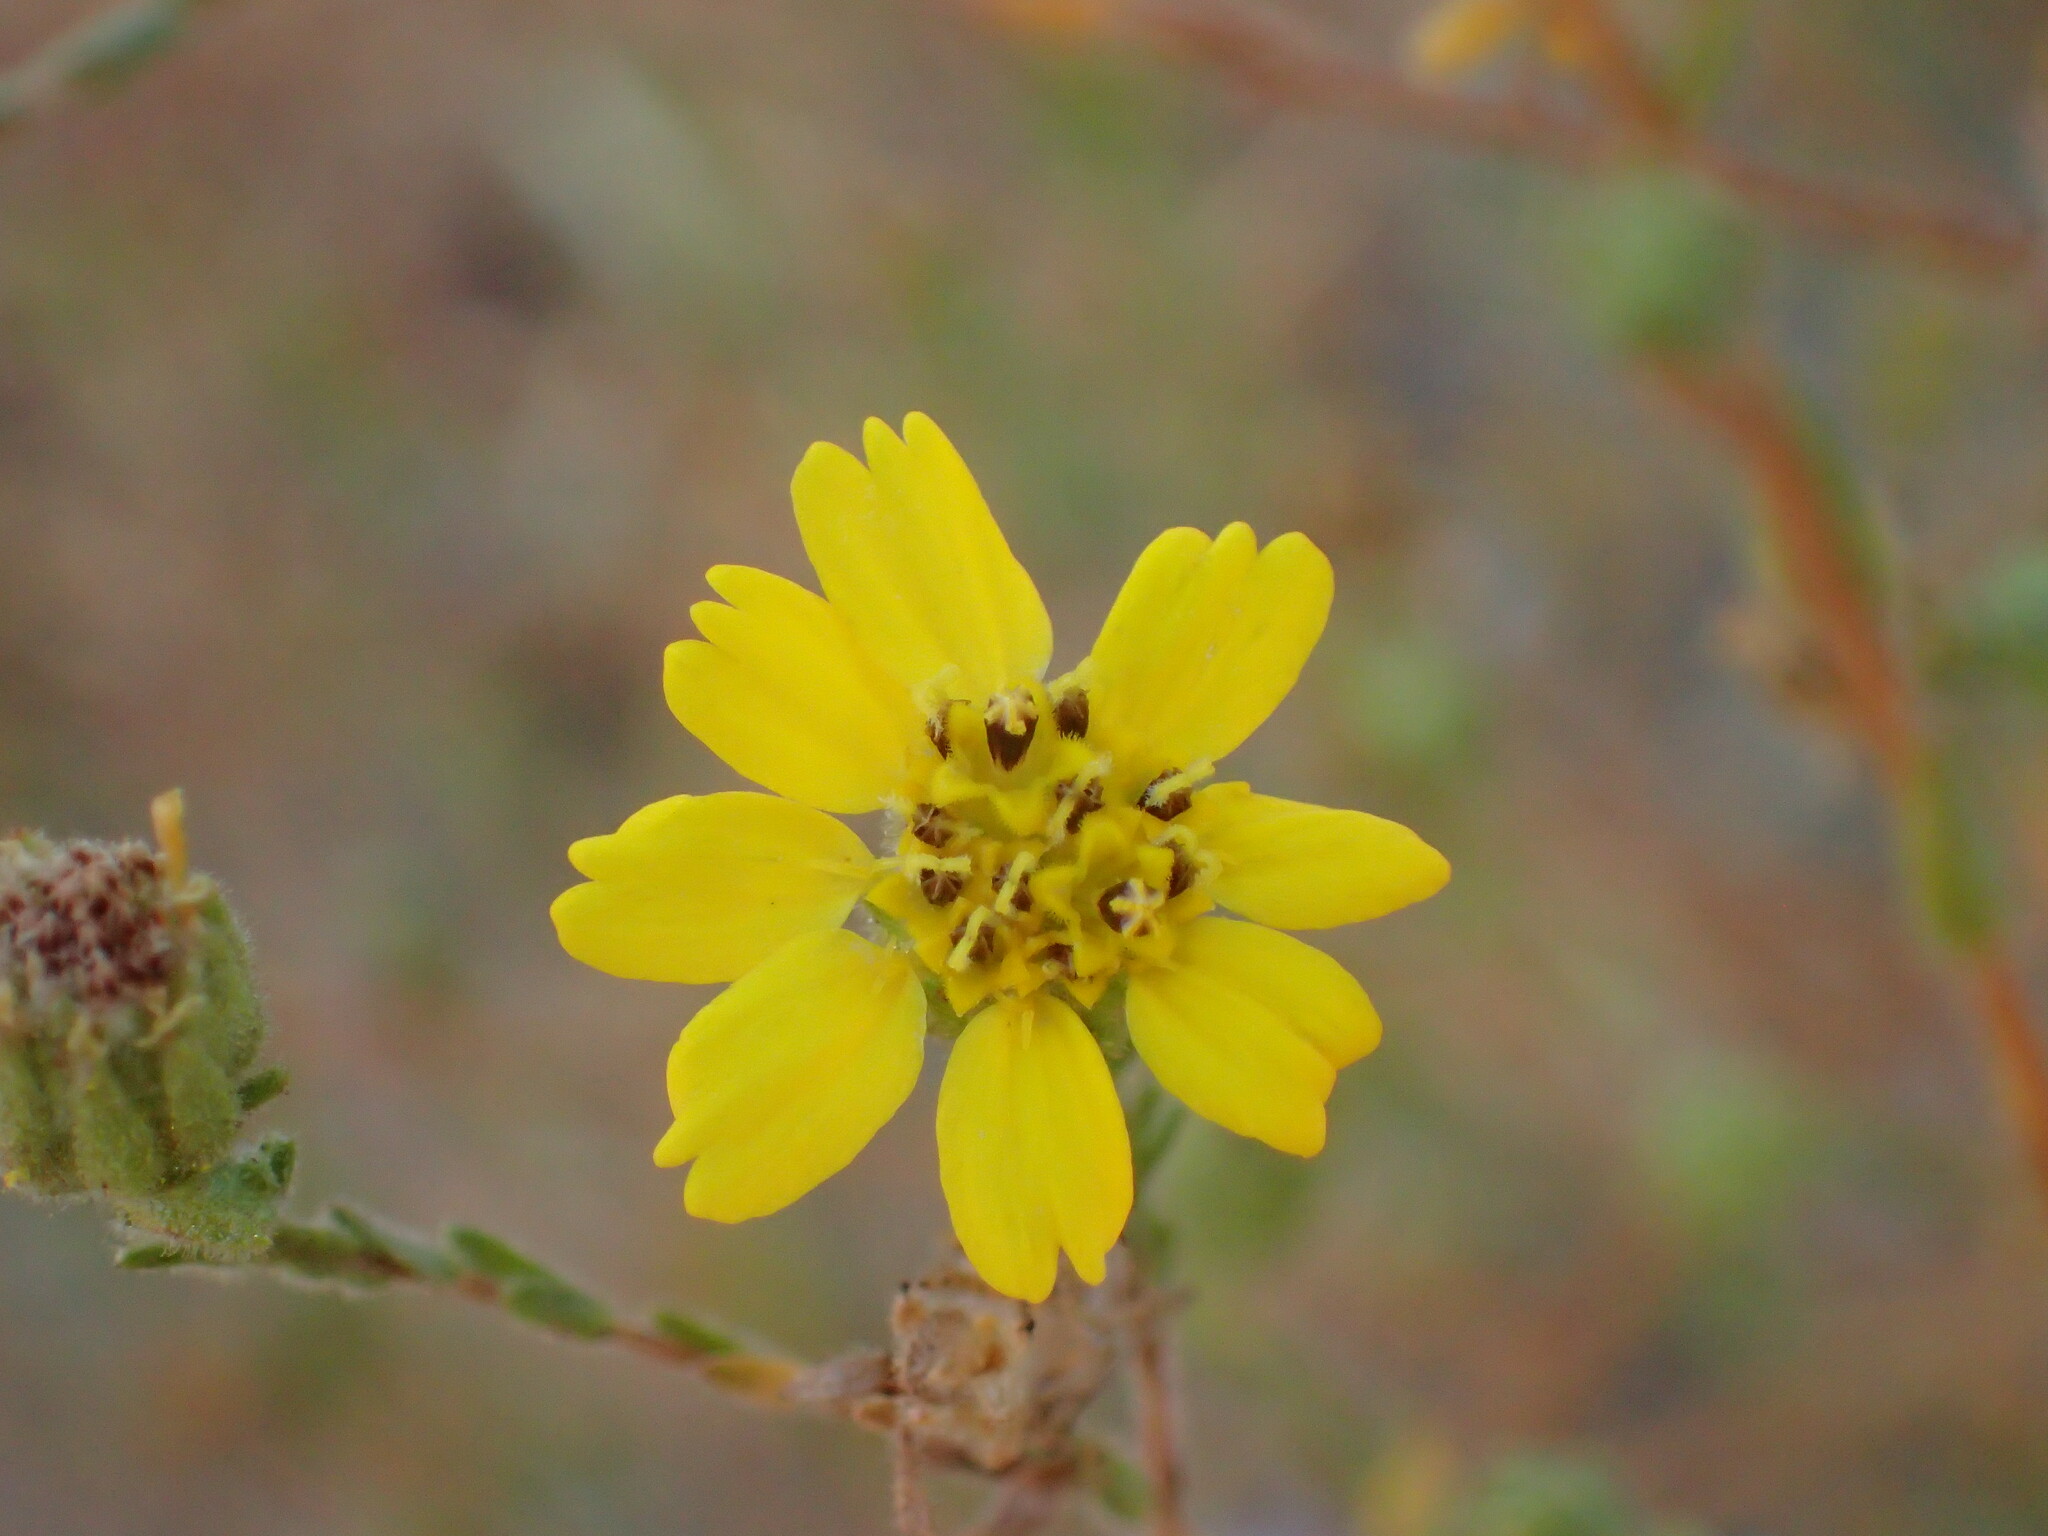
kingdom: Plantae
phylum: Tracheophyta
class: Magnoliopsida
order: Asterales
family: Asteraceae
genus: Deinandra
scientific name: Deinandra paniculata
